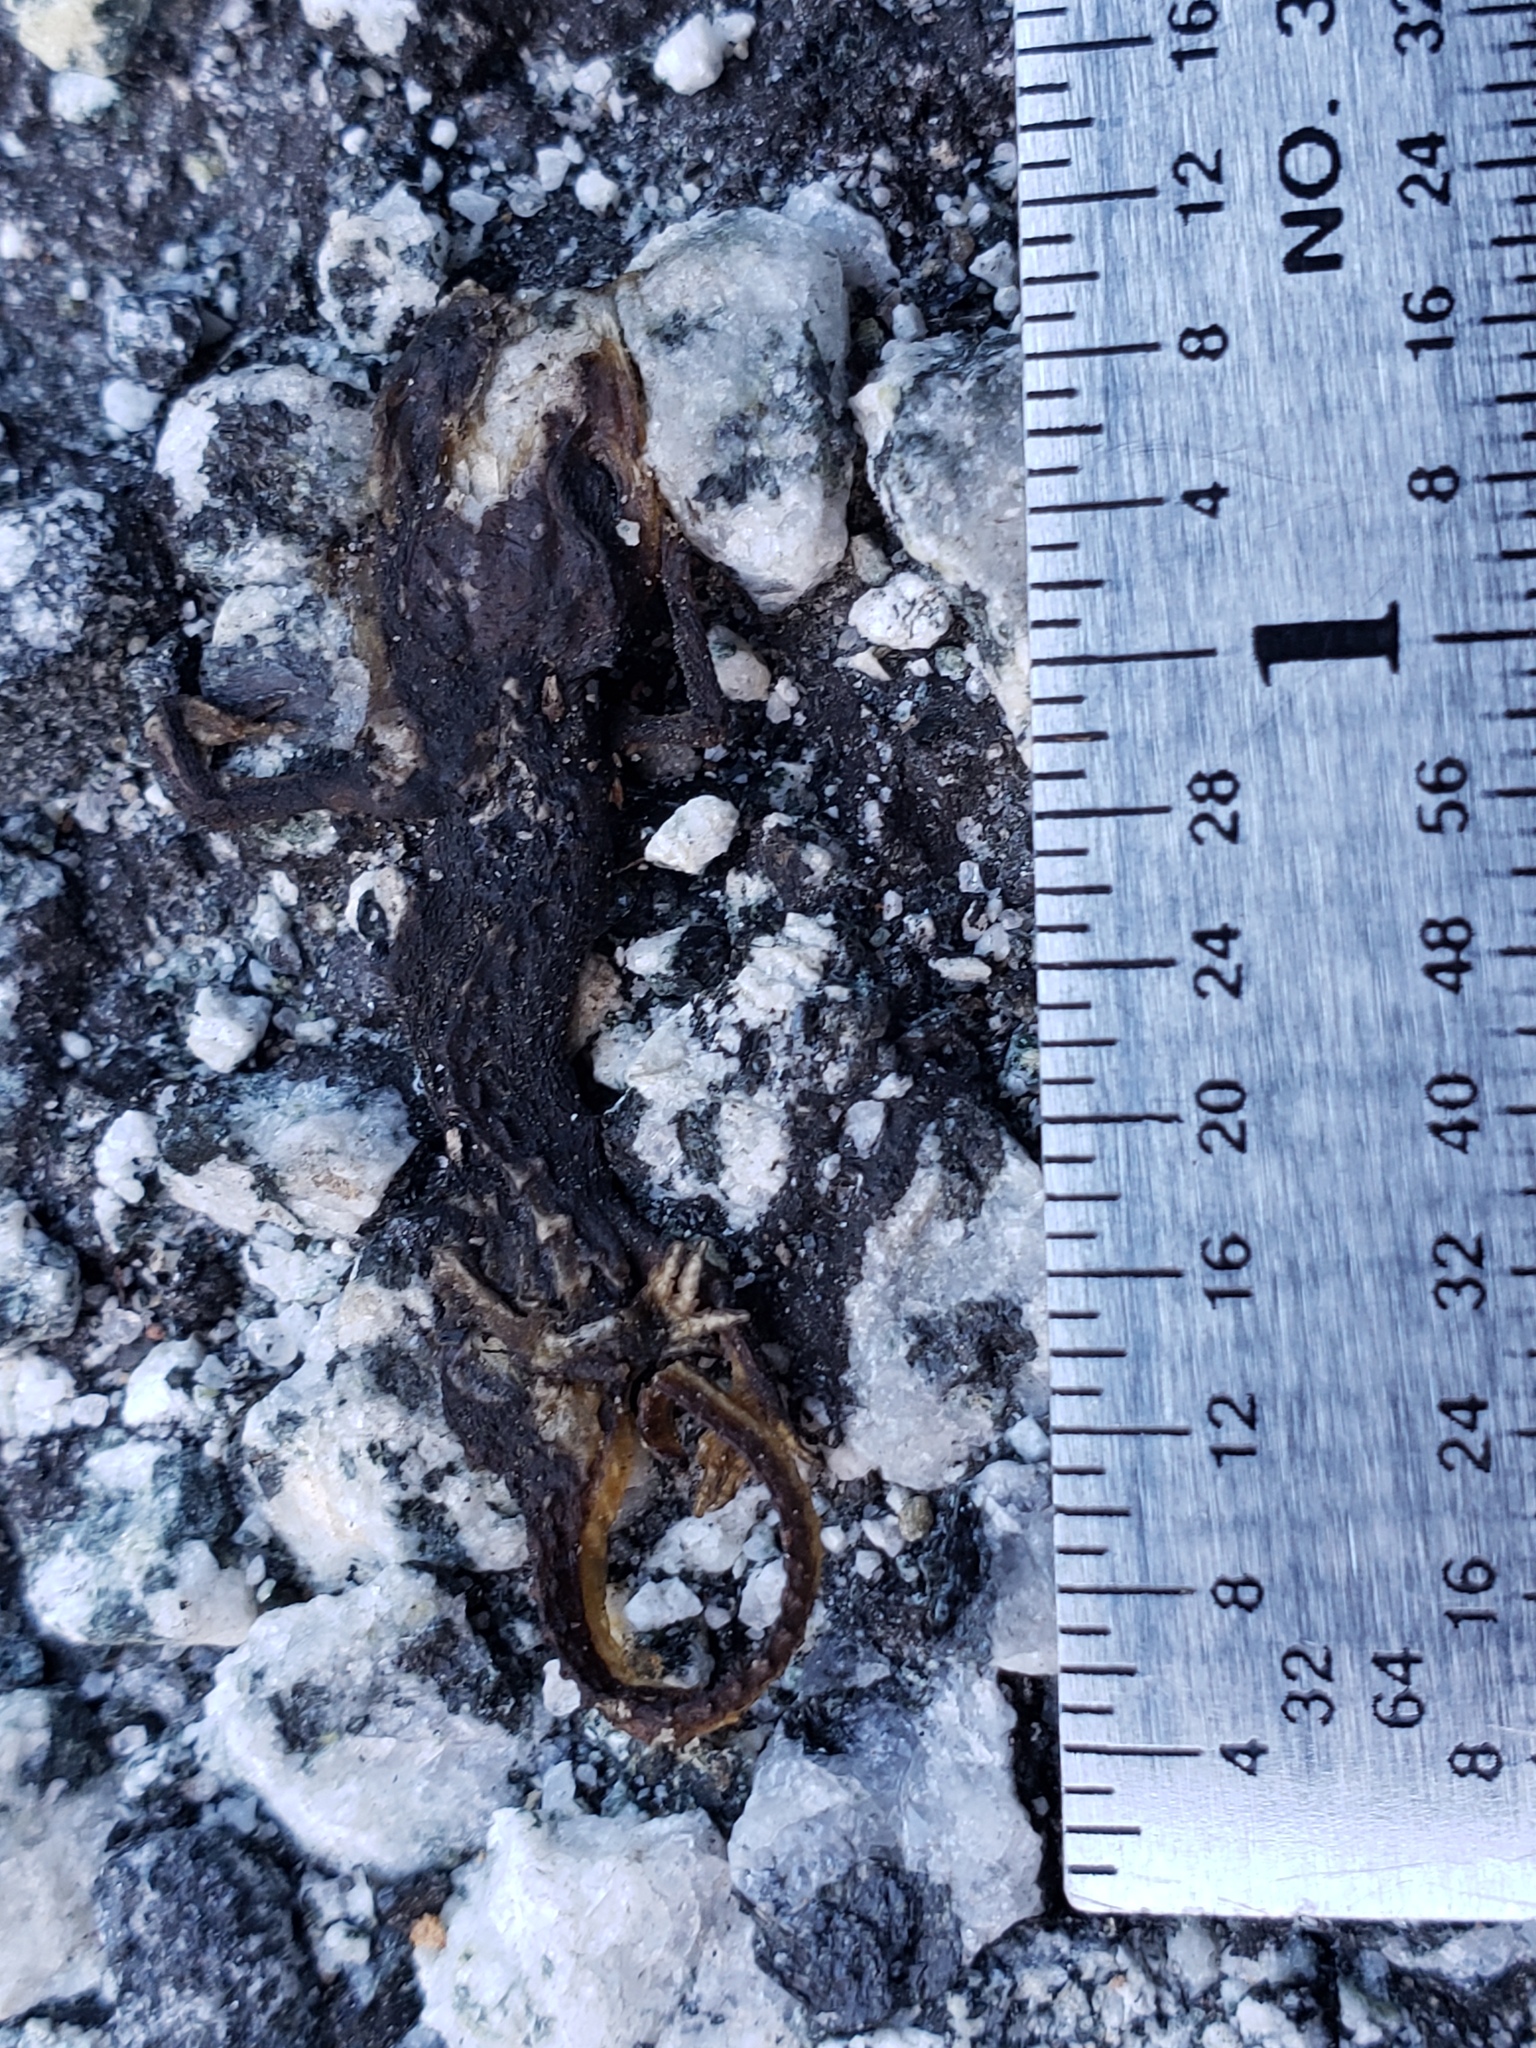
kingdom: Animalia
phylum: Chordata
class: Amphibia
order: Caudata
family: Salamandridae
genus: Taricha
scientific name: Taricha
